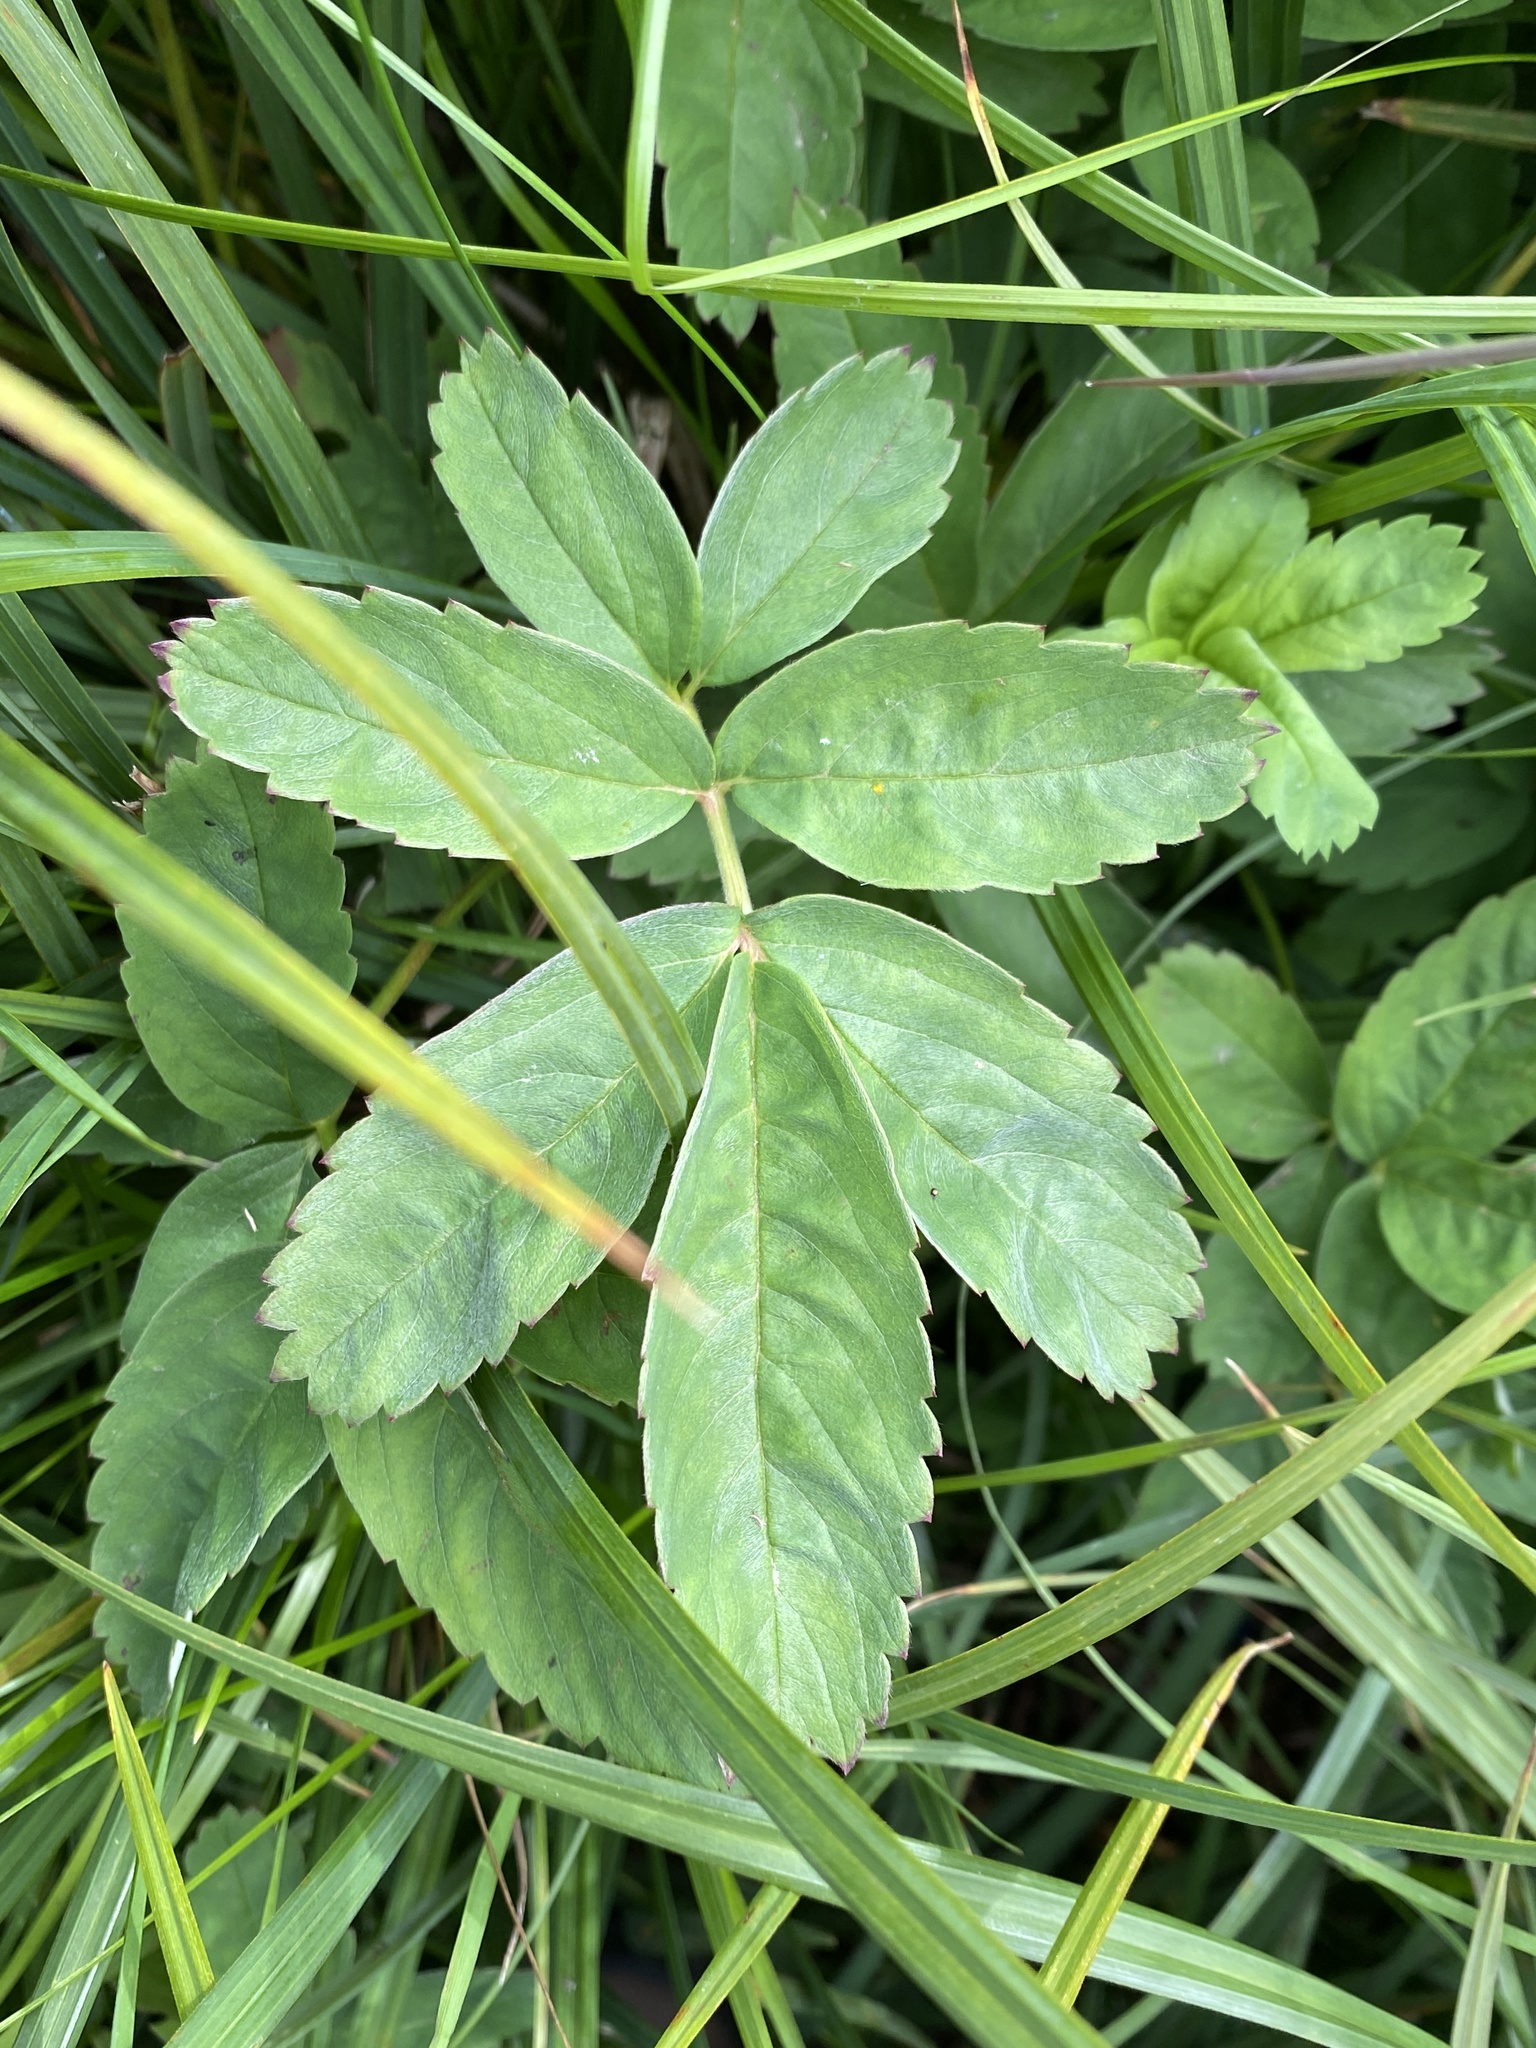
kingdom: Plantae
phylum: Tracheophyta
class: Magnoliopsida
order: Rosales
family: Rosaceae
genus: Comarum
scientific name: Comarum palustre
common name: Marsh cinquefoil
